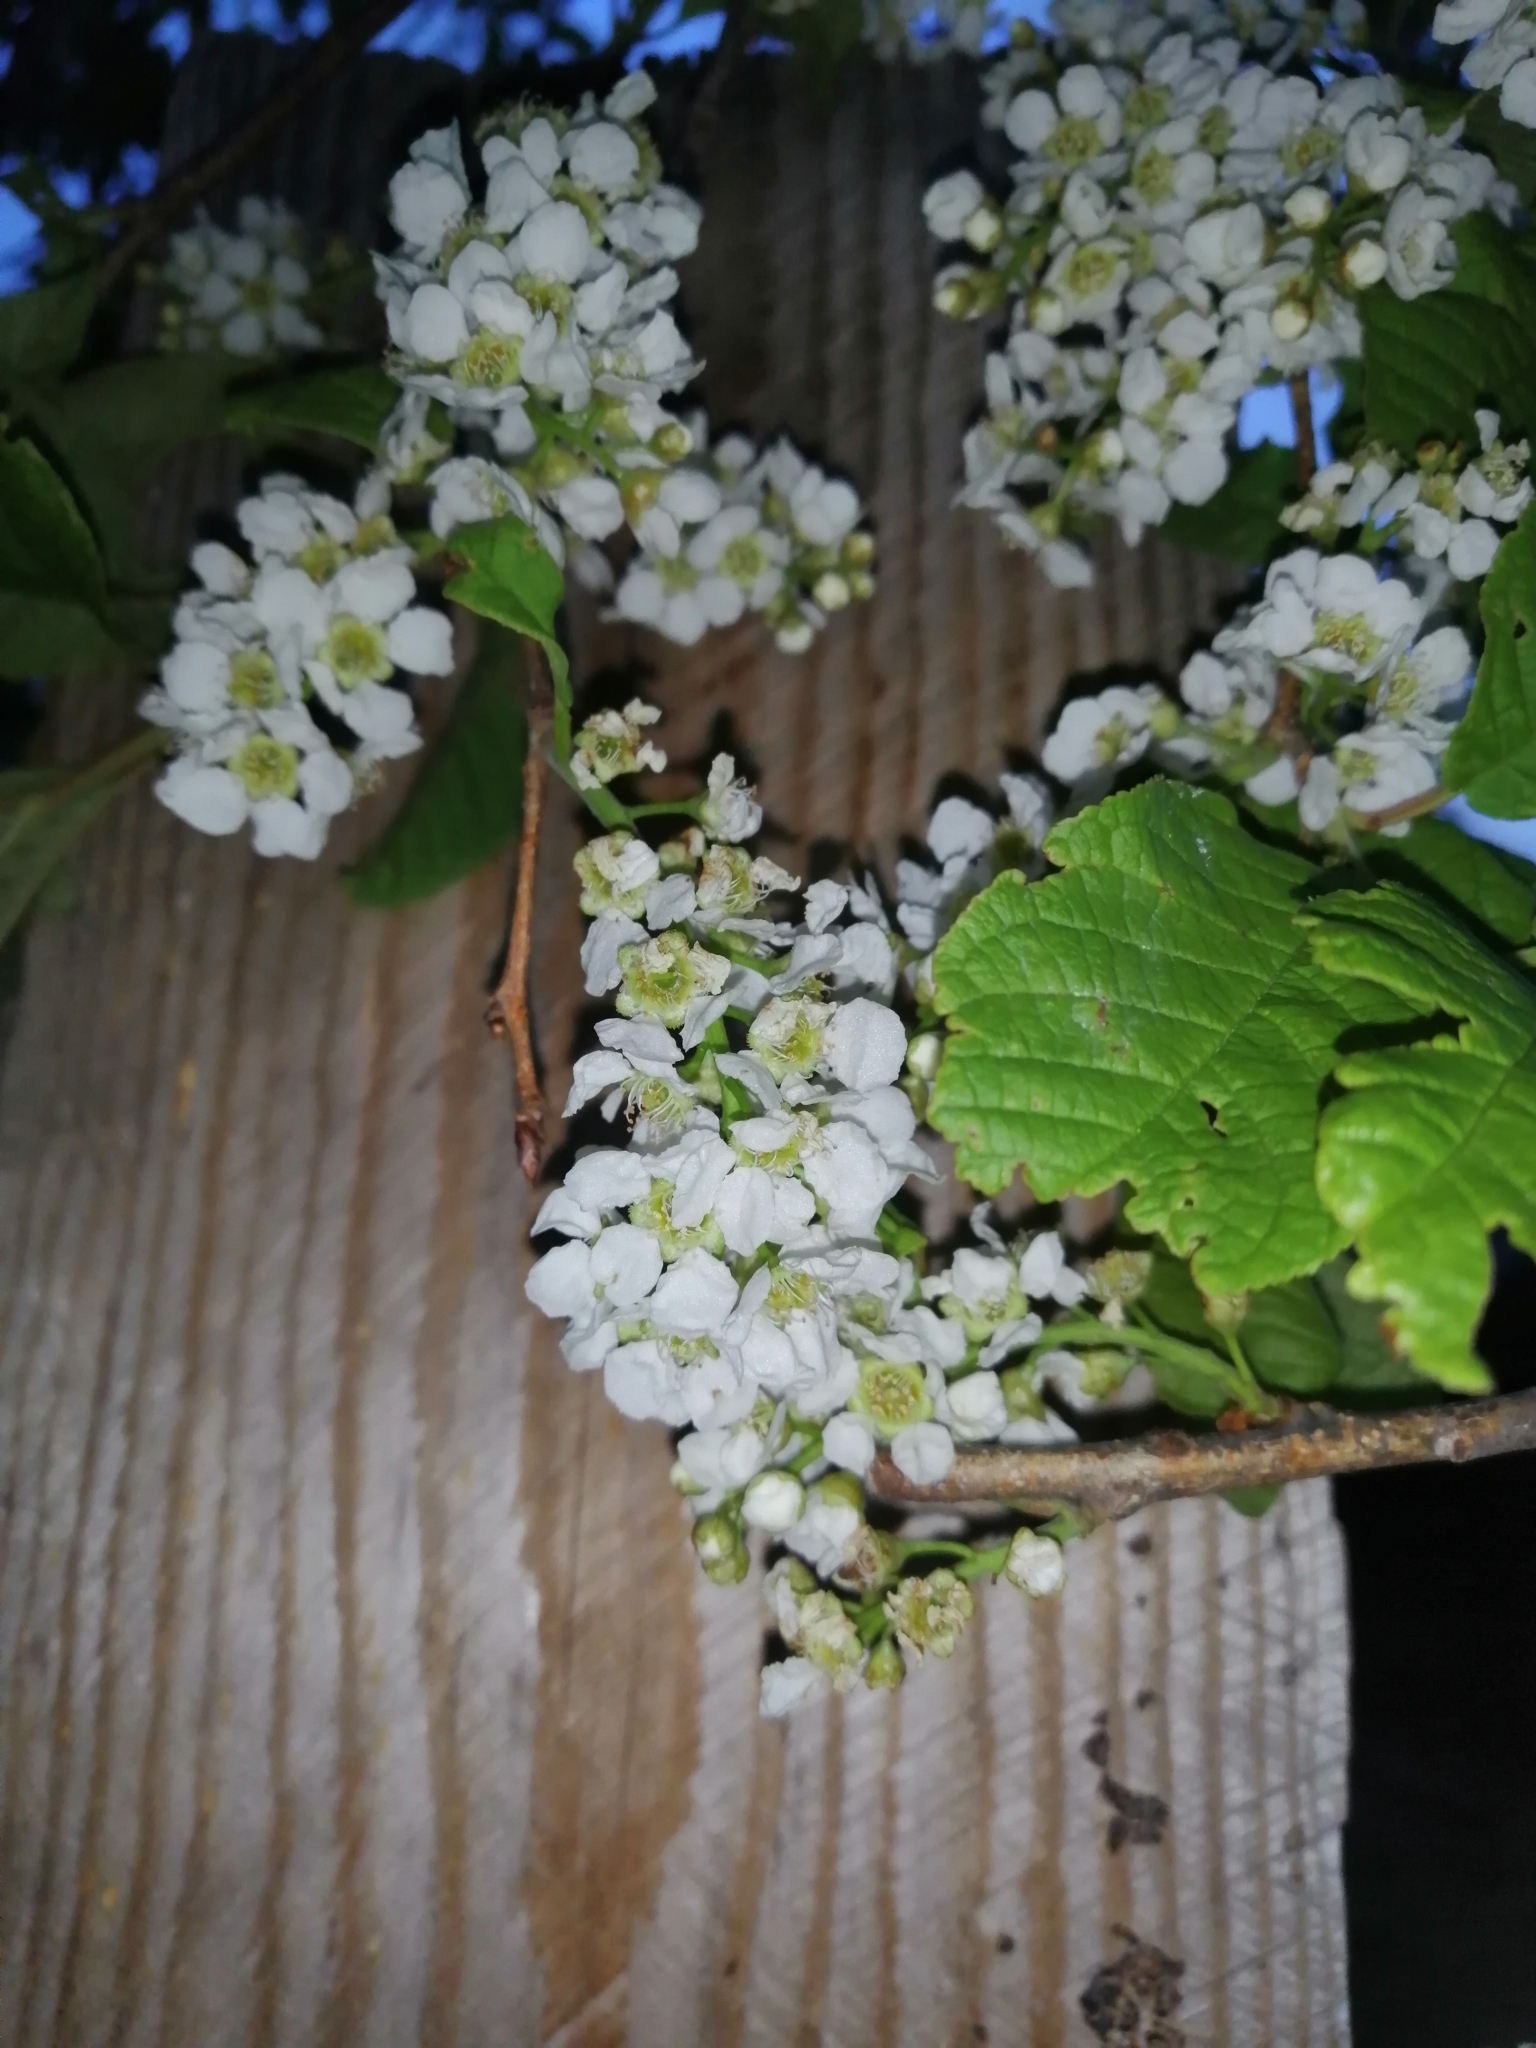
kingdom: Plantae
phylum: Tracheophyta
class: Magnoliopsida
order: Rosales
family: Rosaceae
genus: Prunus
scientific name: Prunus padus
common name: Bird cherry
